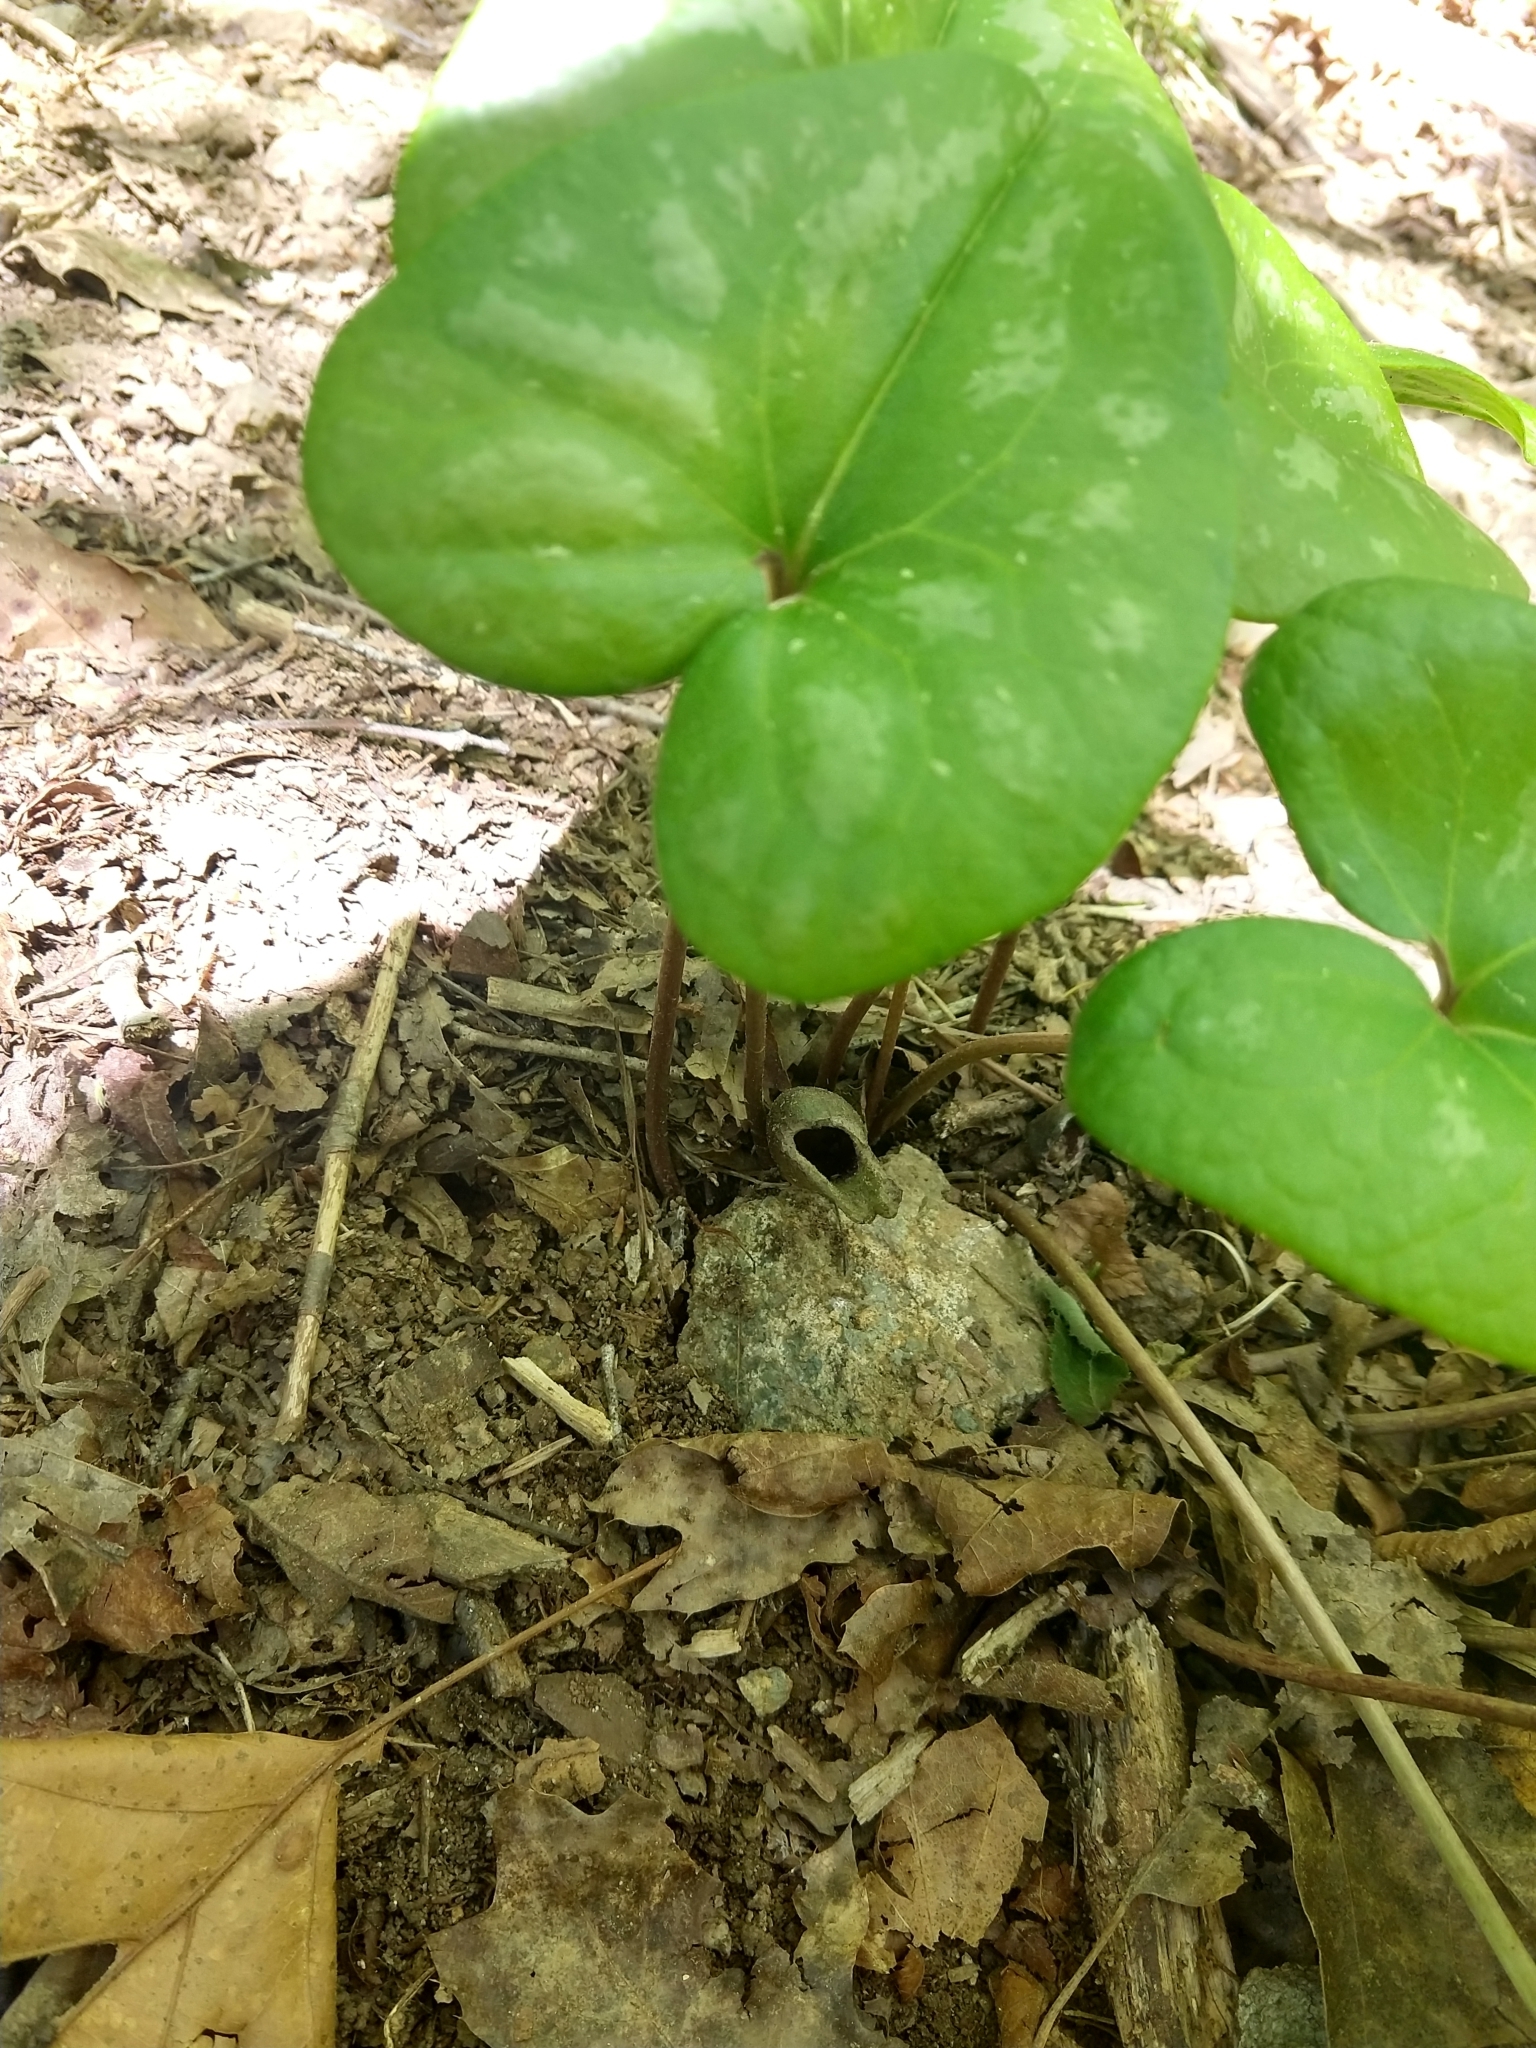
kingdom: Plantae
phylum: Tracheophyta
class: Magnoliopsida
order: Piperales
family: Aristolochiaceae
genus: Hexastylis
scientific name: Hexastylis arifolia
